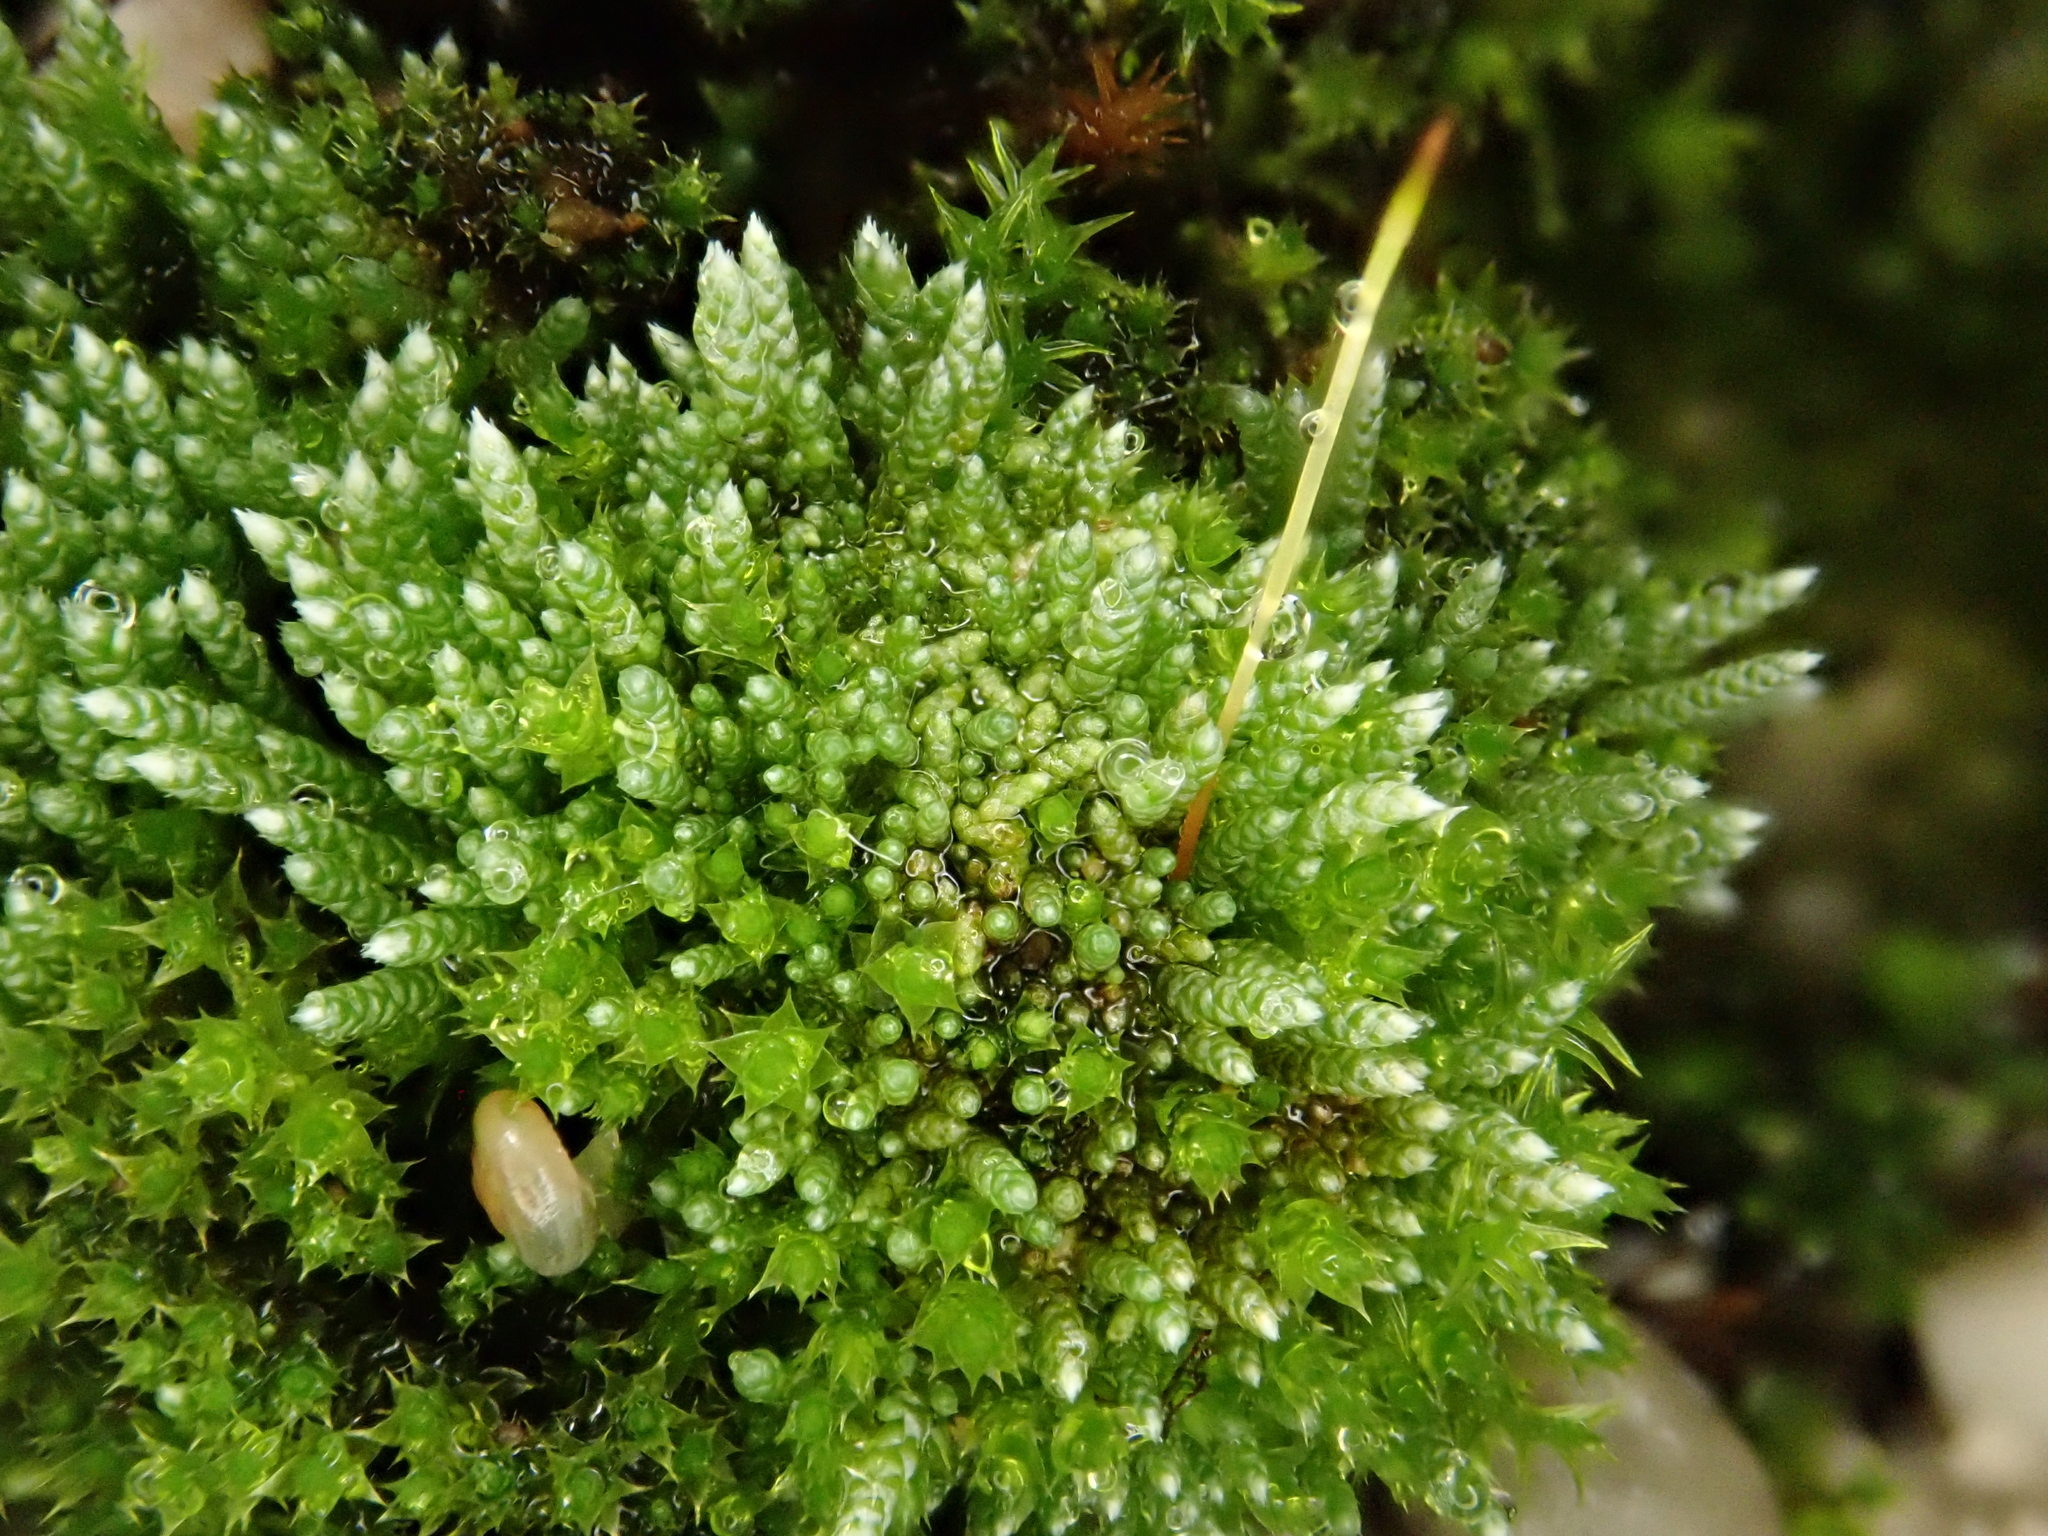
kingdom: Plantae
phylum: Bryophyta
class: Bryopsida
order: Bryales
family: Bryaceae
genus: Bryum
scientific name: Bryum argenteum
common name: Silver-moss
